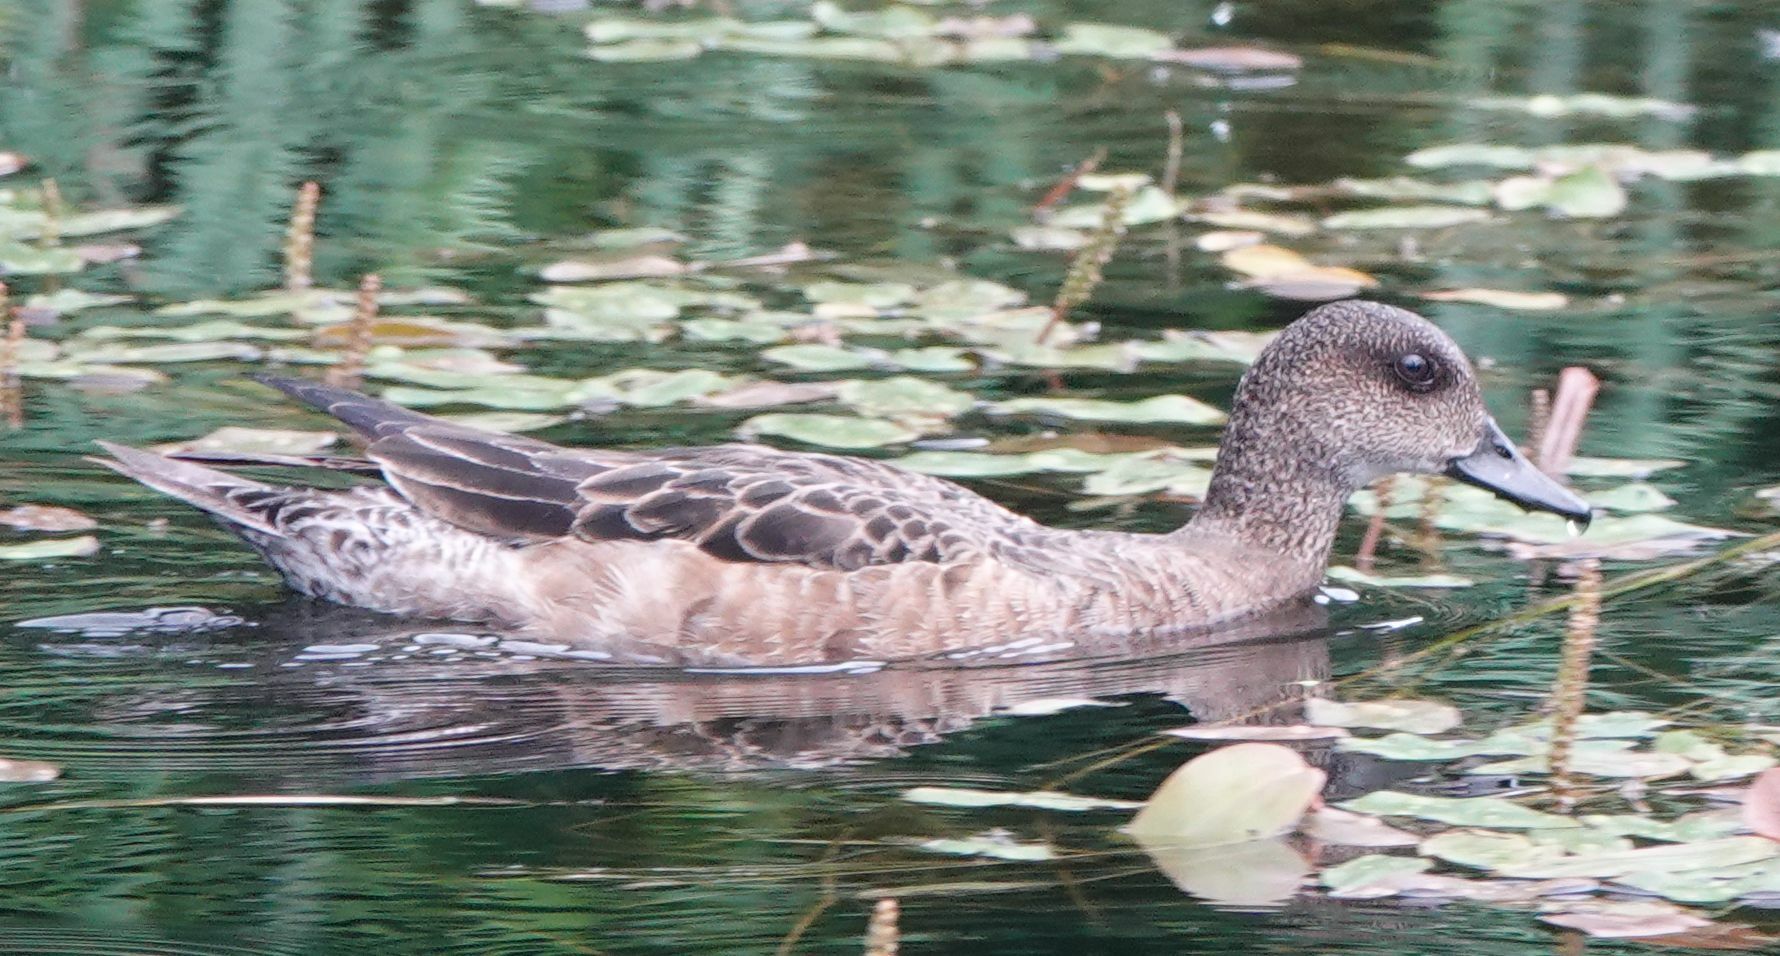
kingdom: Animalia
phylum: Chordata
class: Aves
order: Anseriformes
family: Anatidae
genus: Mareca
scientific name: Mareca penelope
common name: Eurasian wigeon
